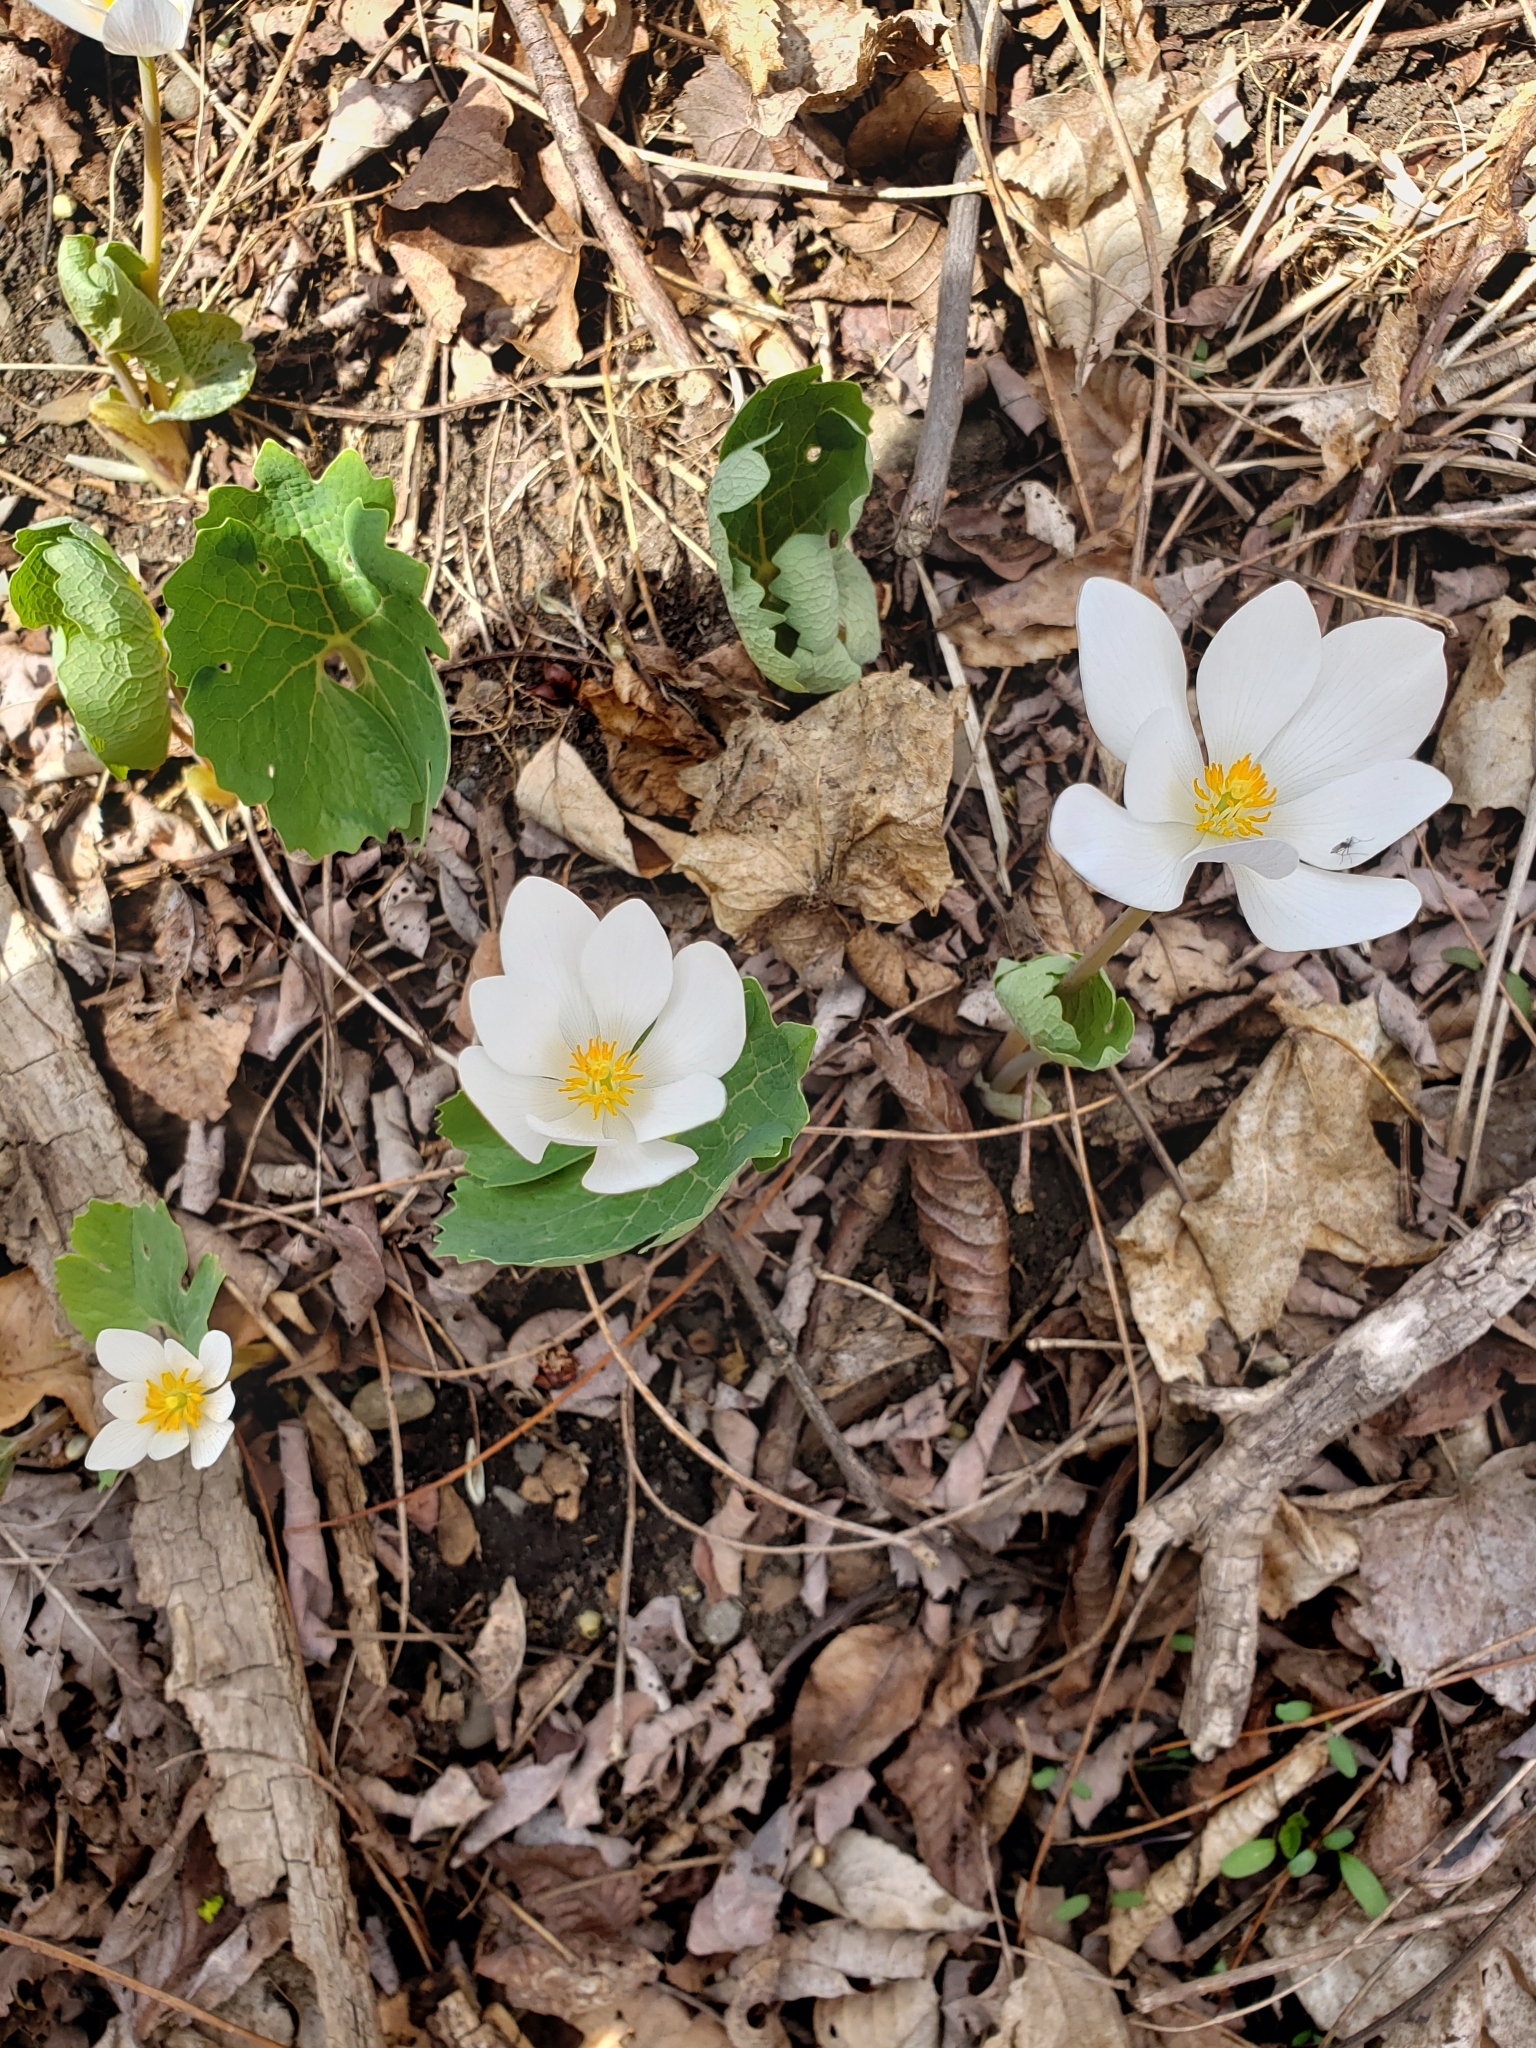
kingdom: Plantae
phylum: Tracheophyta
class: Magnoliopsida
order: Ranunculales
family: Papaveraceae
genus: Sanguinaria
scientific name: Sanguinaria canadensis
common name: Bloodroot
